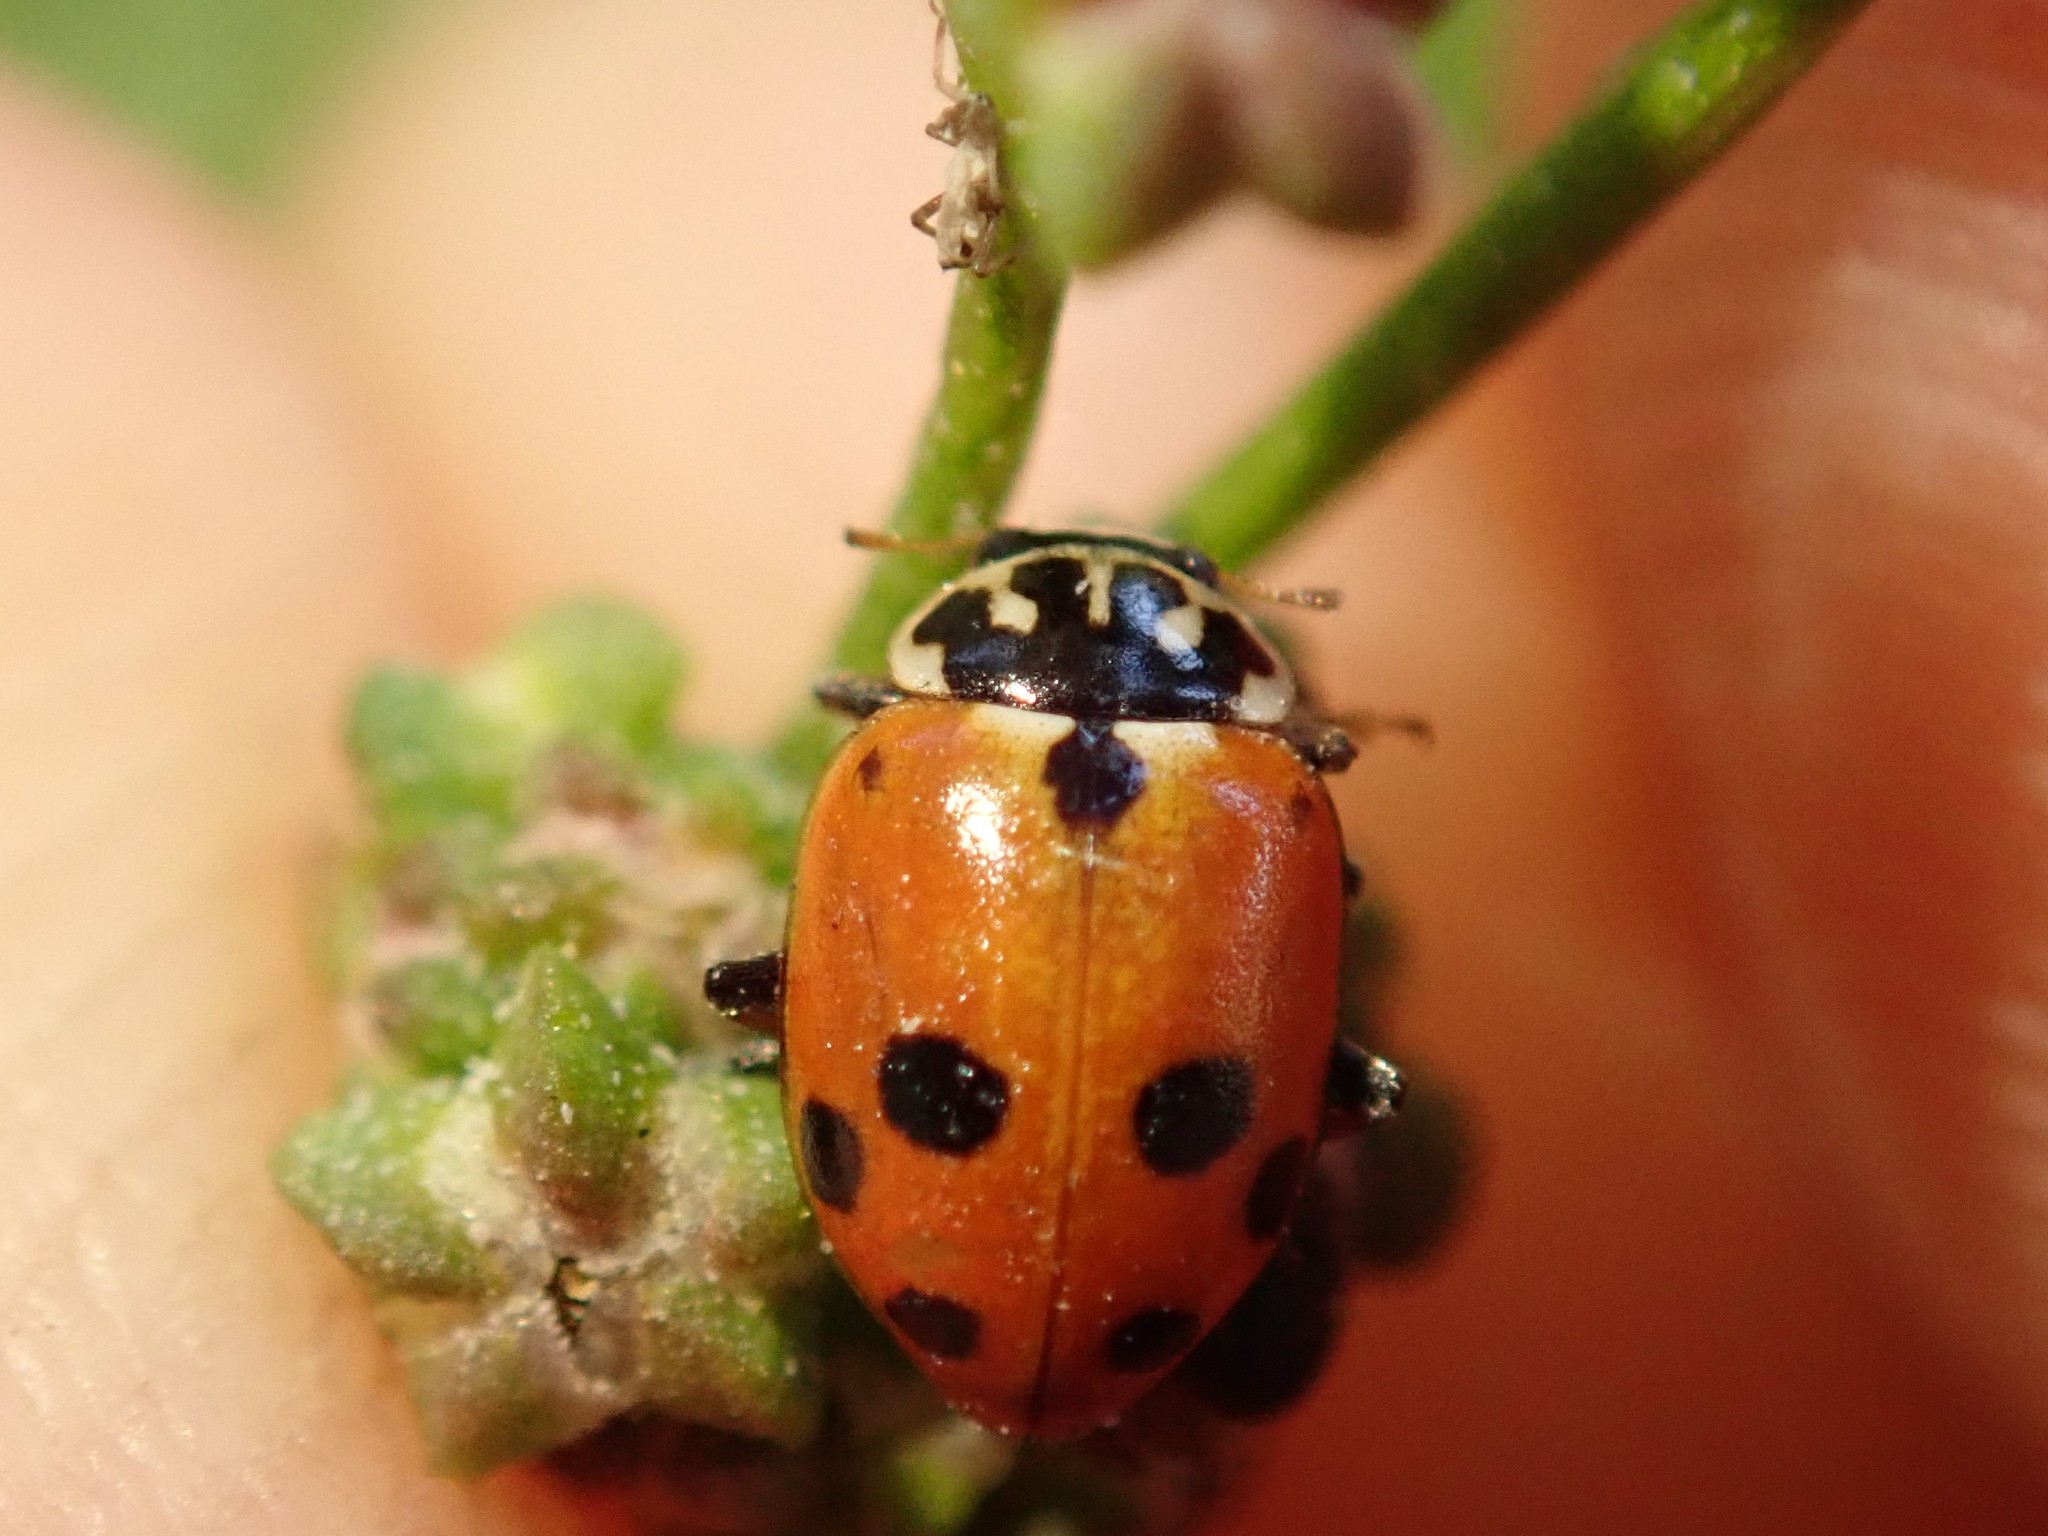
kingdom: Animalia
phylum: Arthropoda
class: Insecta
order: Coleoptera
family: Coccinellidae
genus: Hippodamia
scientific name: Hippodamia variegata
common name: Ladybird beetle
